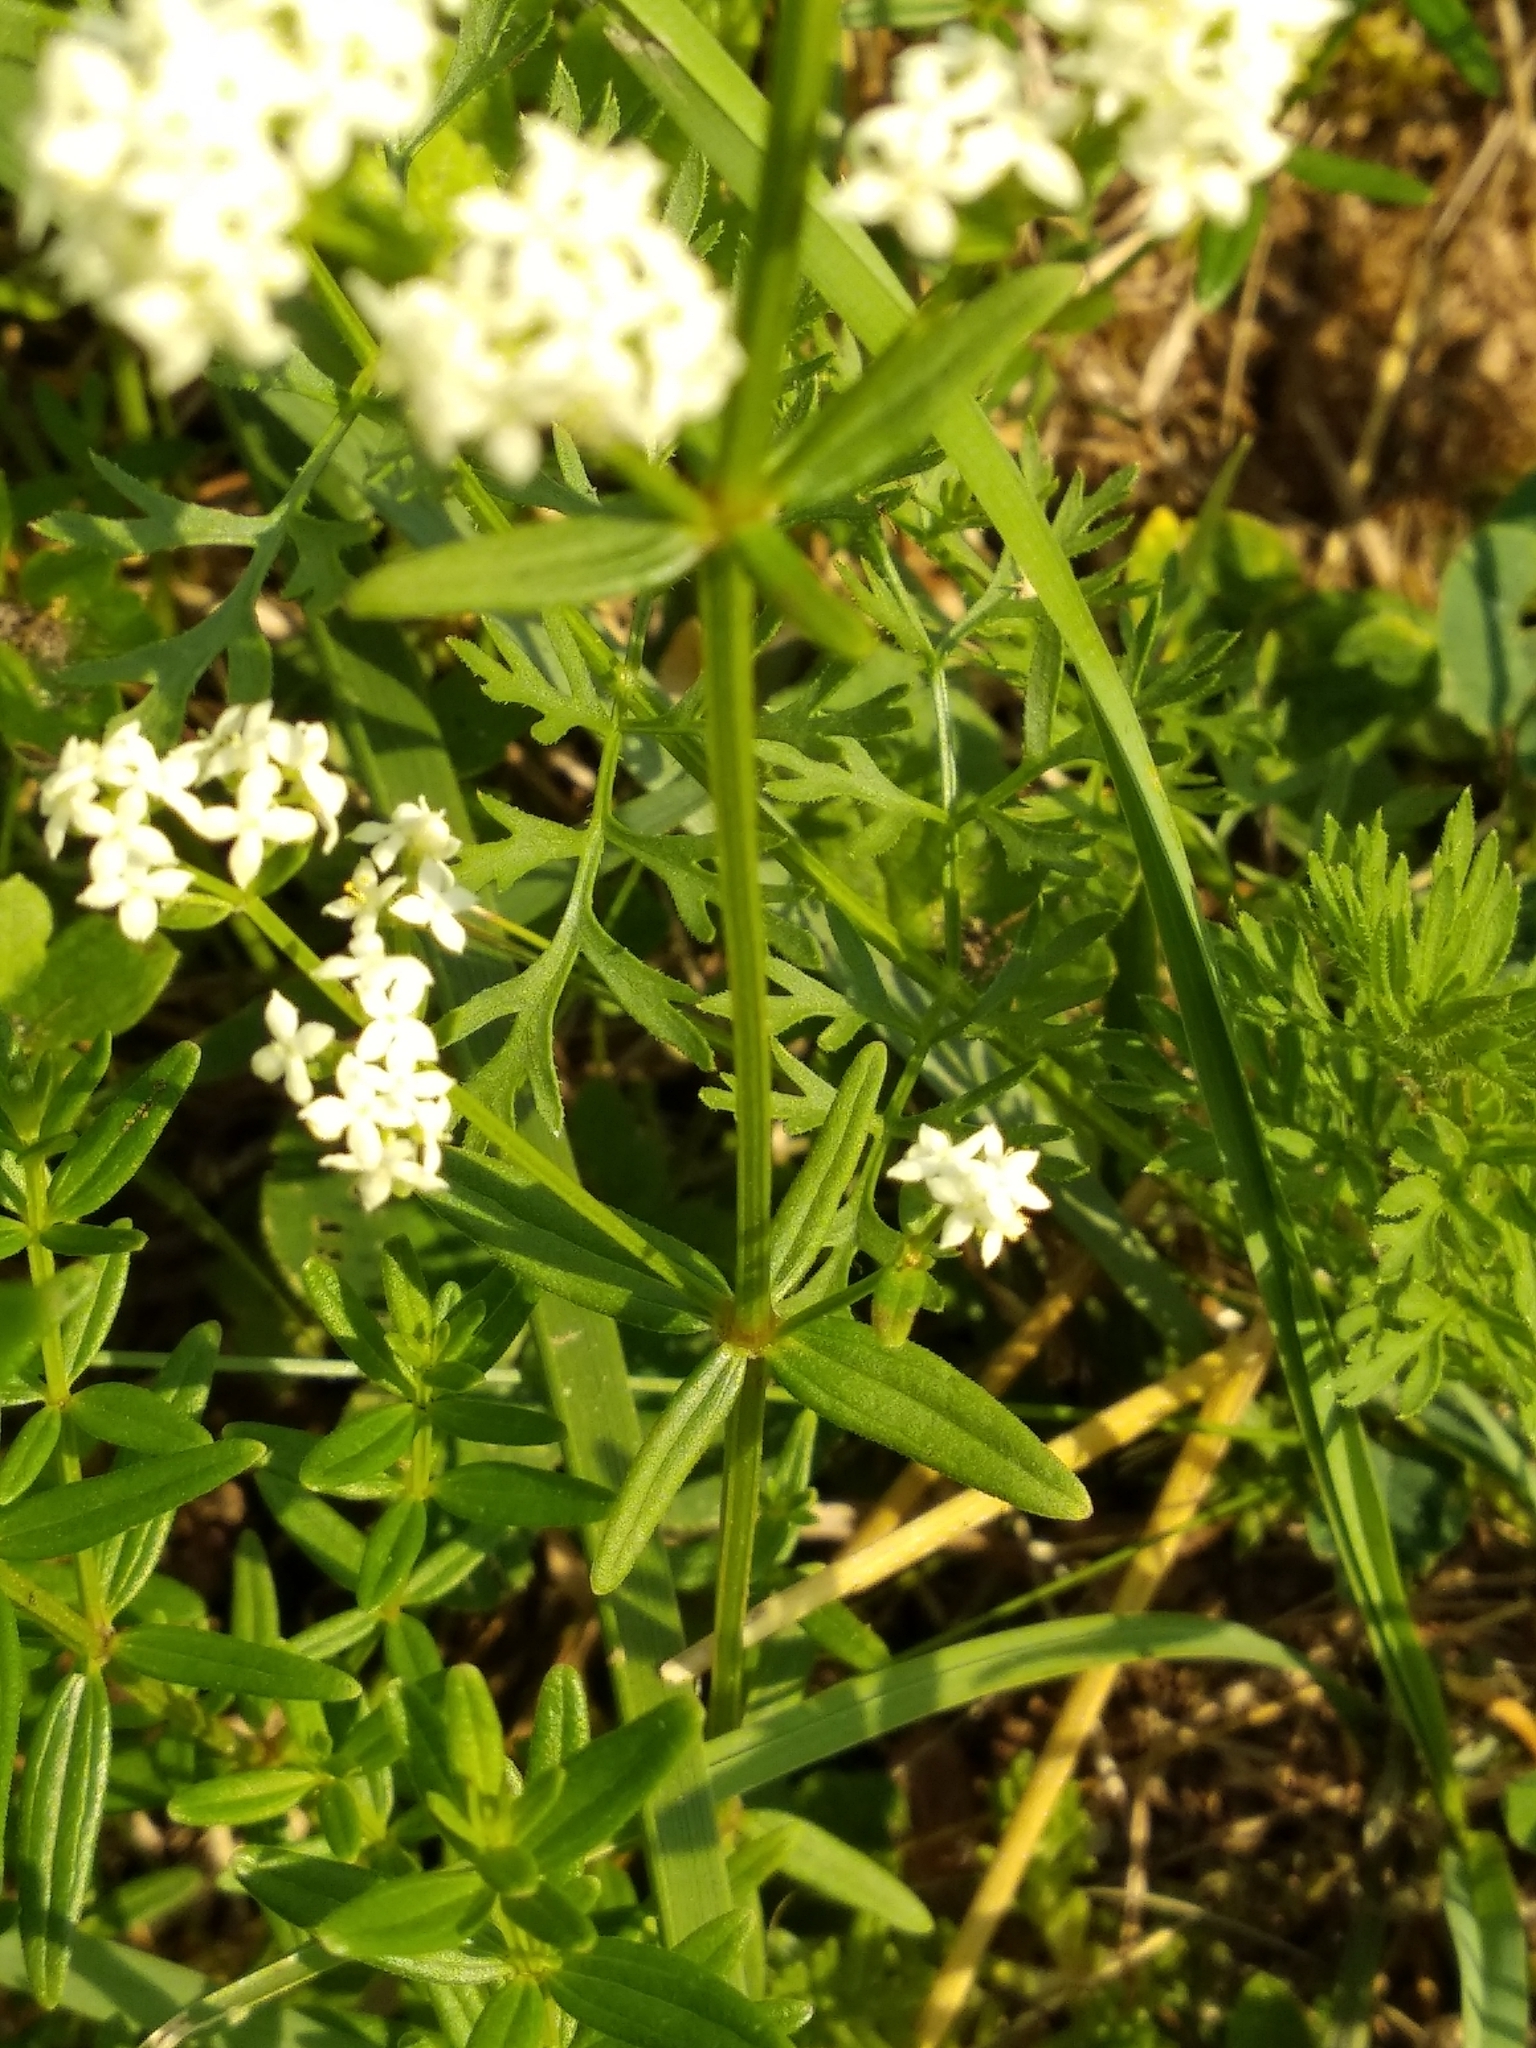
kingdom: Plantae
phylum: Tracheophyta
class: Magnoliopsida
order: Gentianales
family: Rubiaceae
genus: Galium
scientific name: Galium boreale
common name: Northern bedstraw
